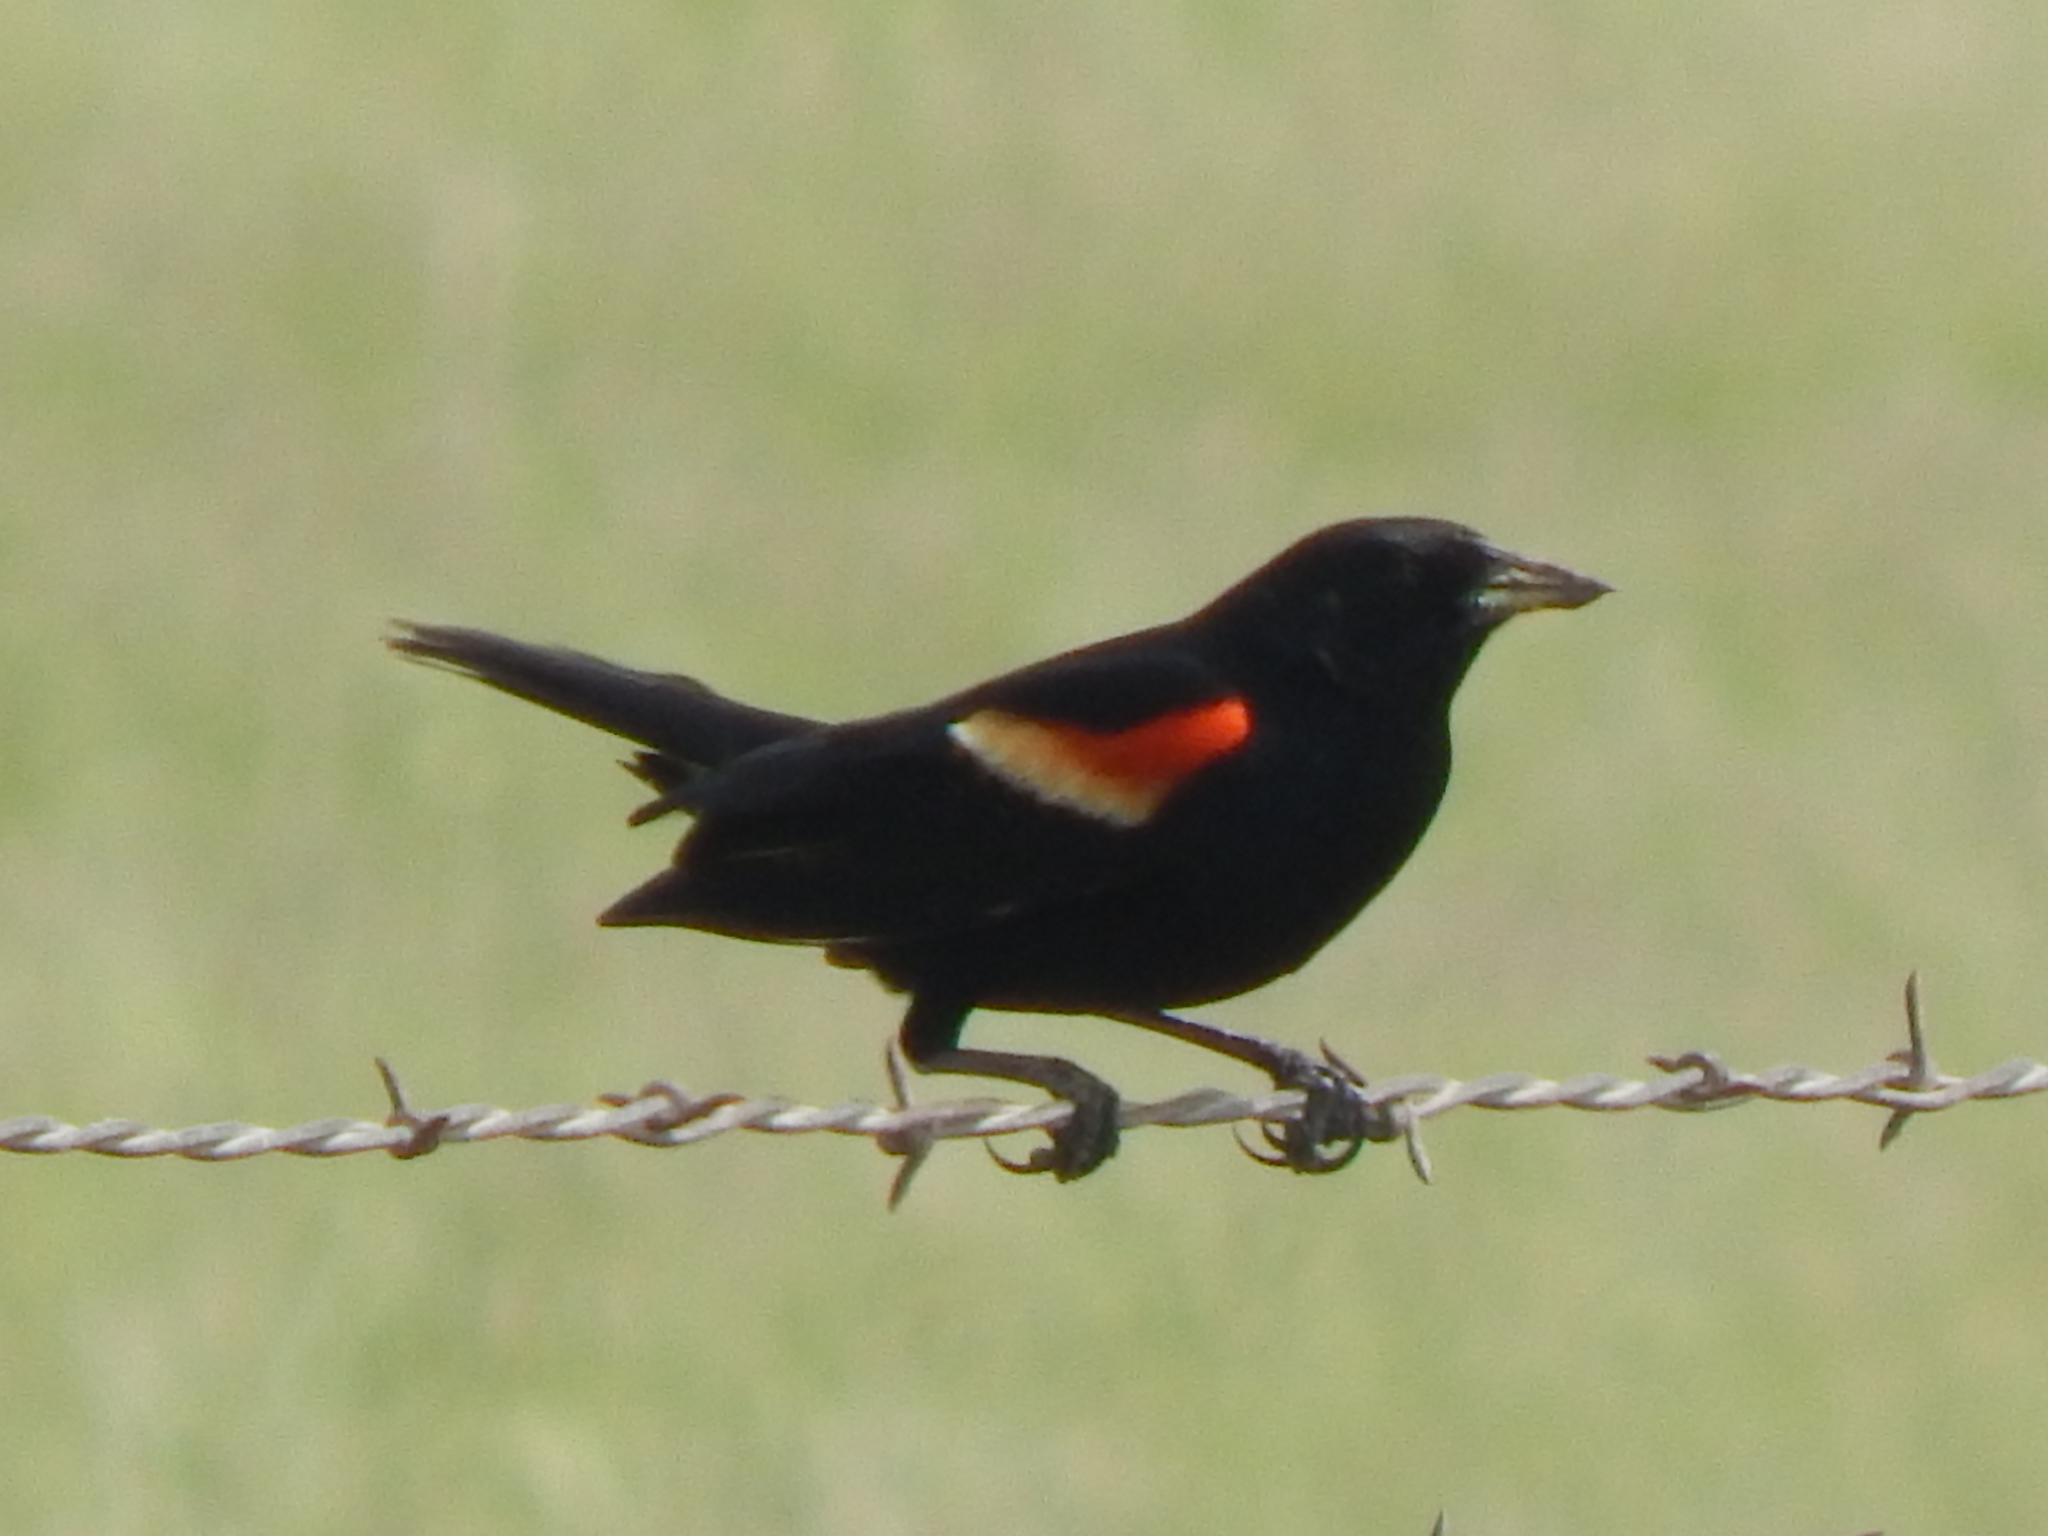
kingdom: Animalia
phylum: Chordata
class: Aves
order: Passeriformes
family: Icteridae
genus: Agelaius
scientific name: Agelaius phoeniceus
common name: Red-winged blackbird
